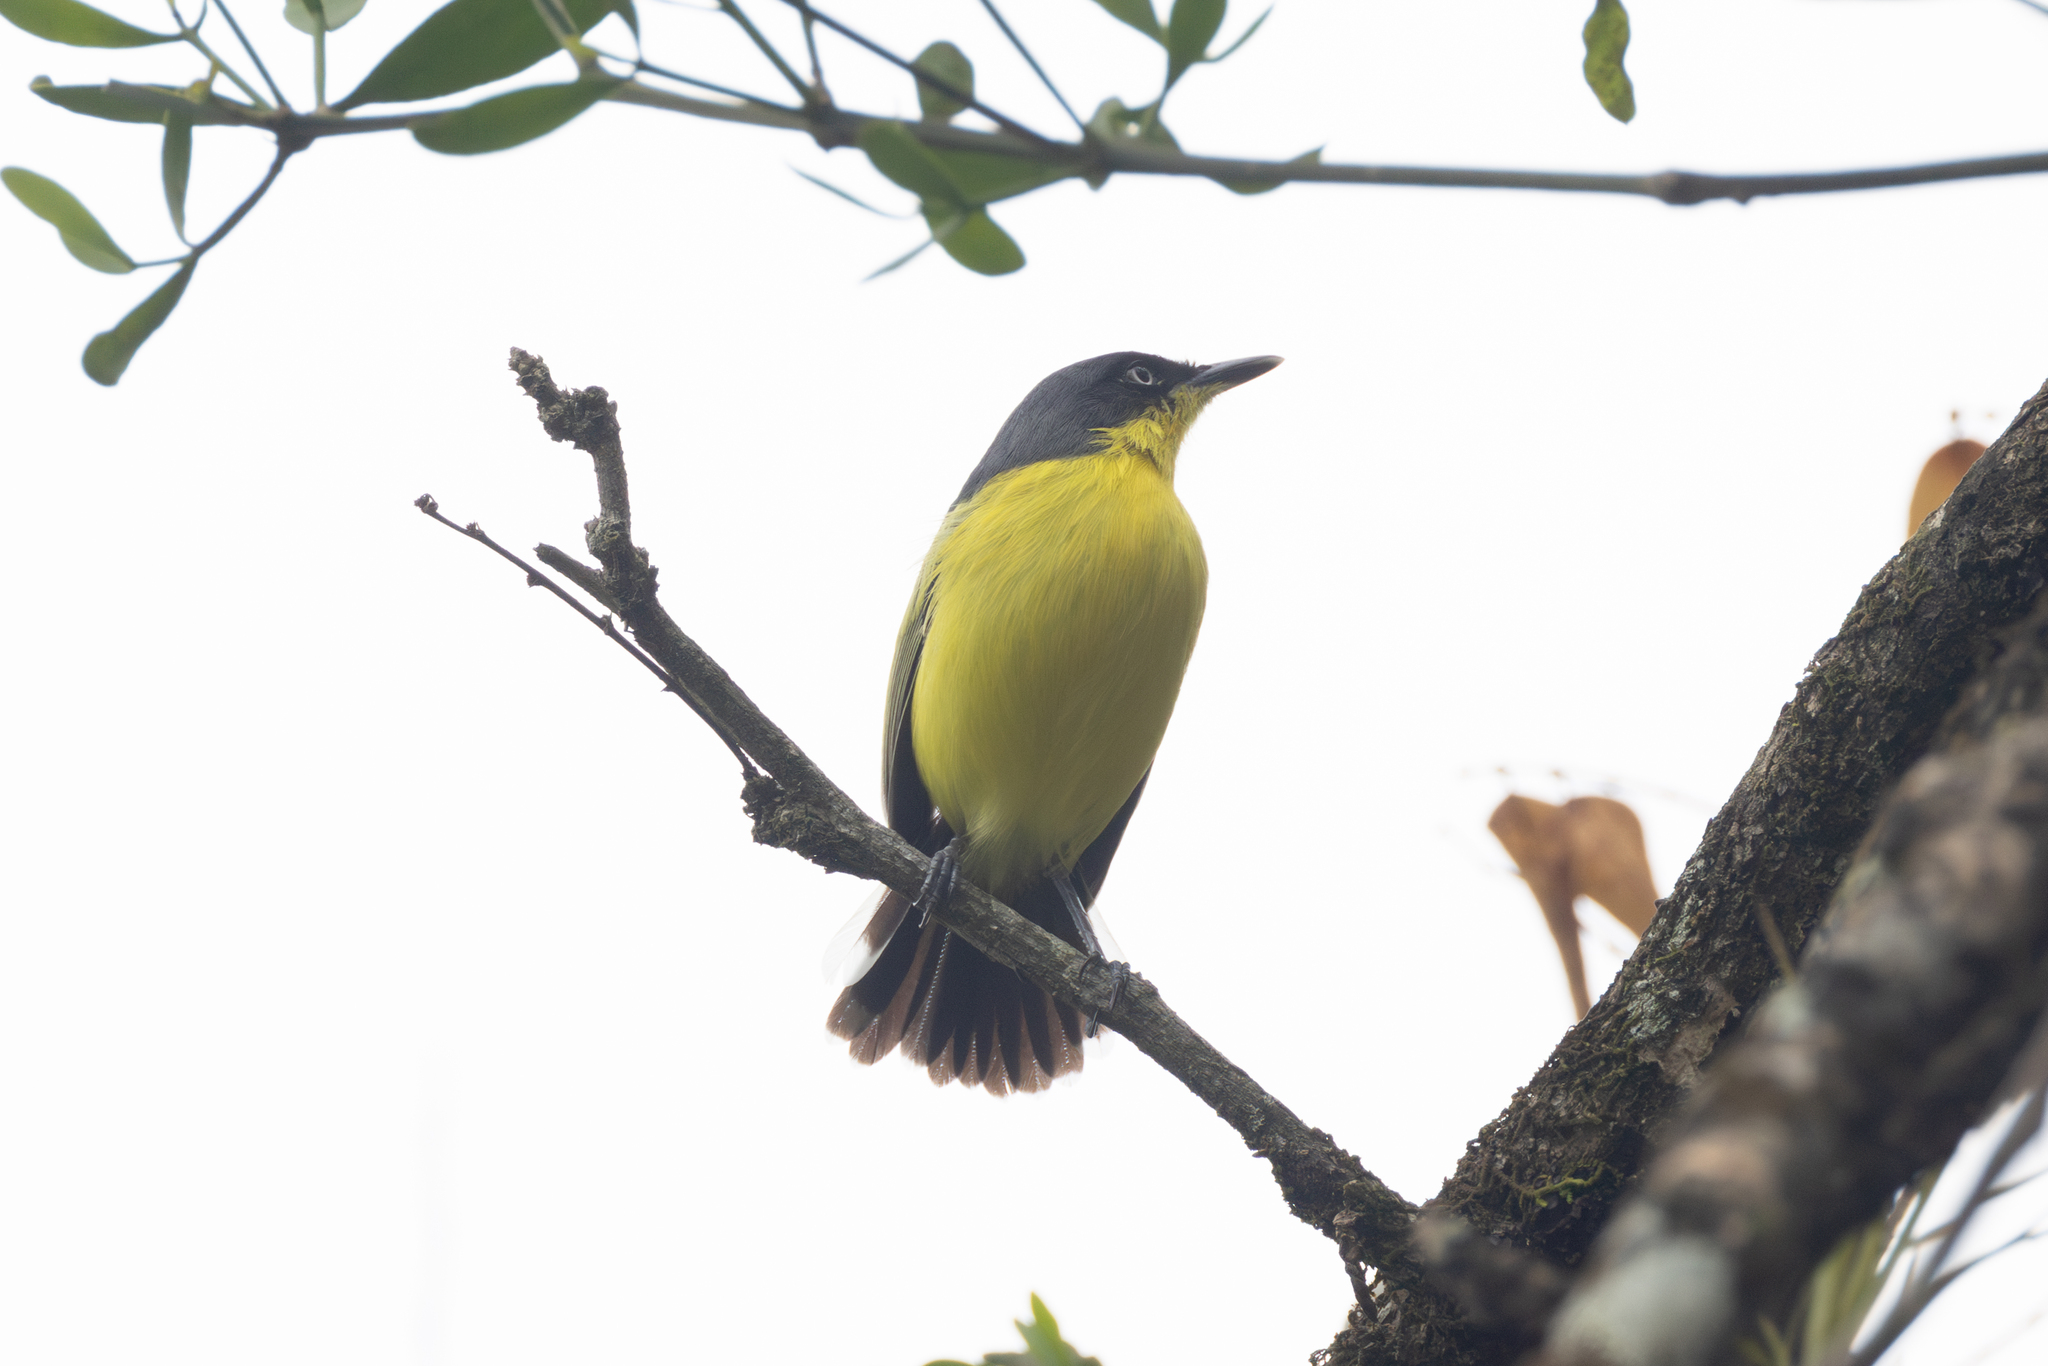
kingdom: Animalia
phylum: Chordata
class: Aves
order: Passeriformes
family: Tyrannidae
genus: Todirostrum
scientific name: Todirostrum cinereum
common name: Common tody-flycatcher
